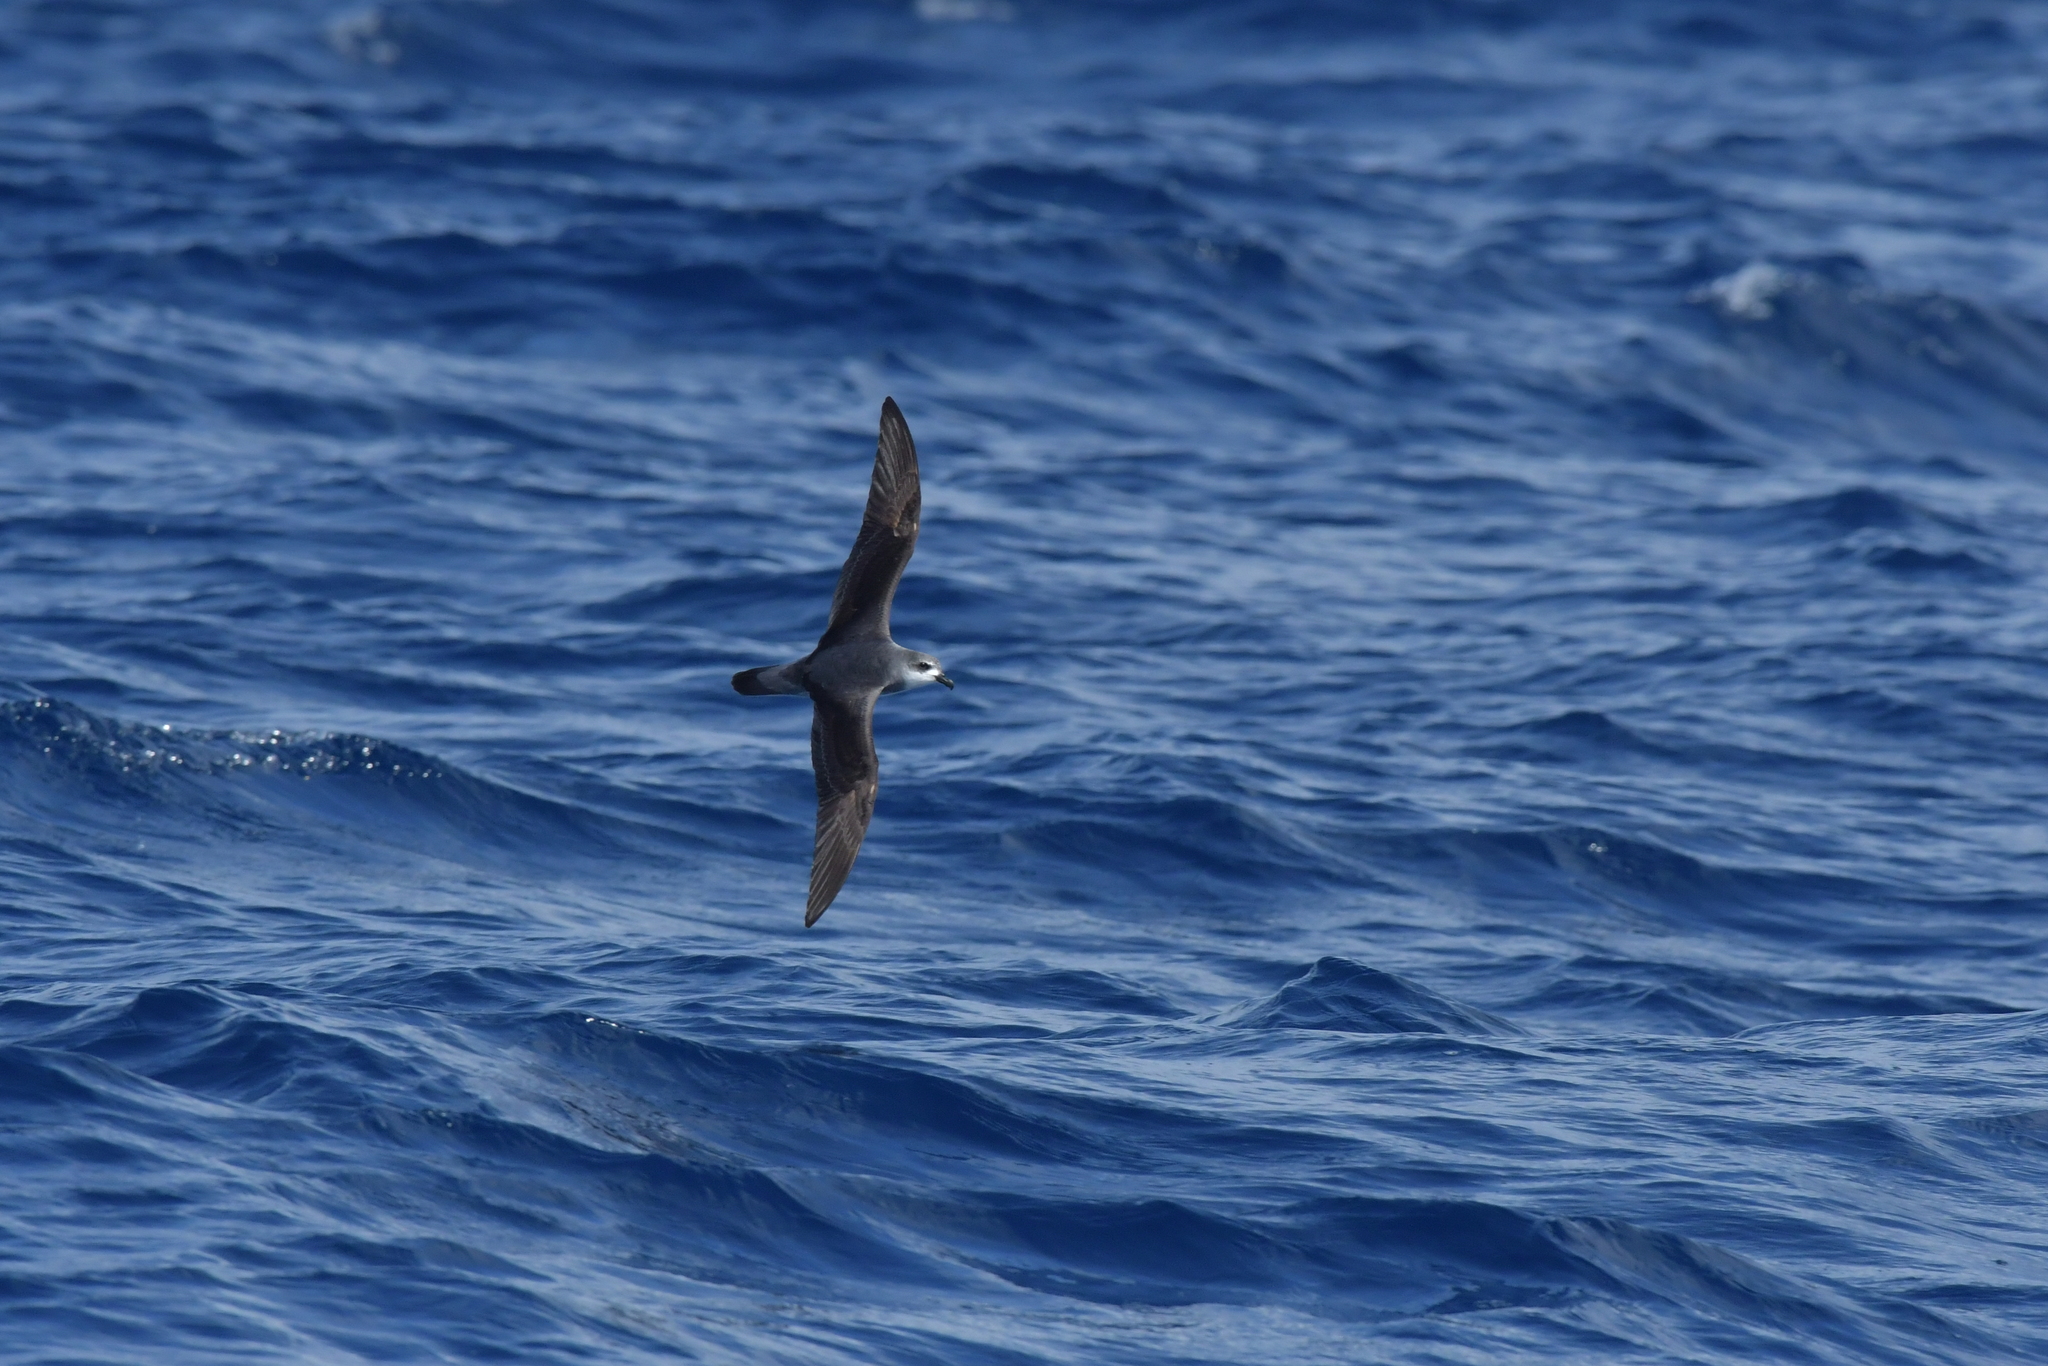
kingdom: Animalia
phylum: Chordata
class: Aves
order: Procellariiformes
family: Procellariidae
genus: Pterodroma
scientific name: Pterodroma nigripennis
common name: Black-winged petrel
